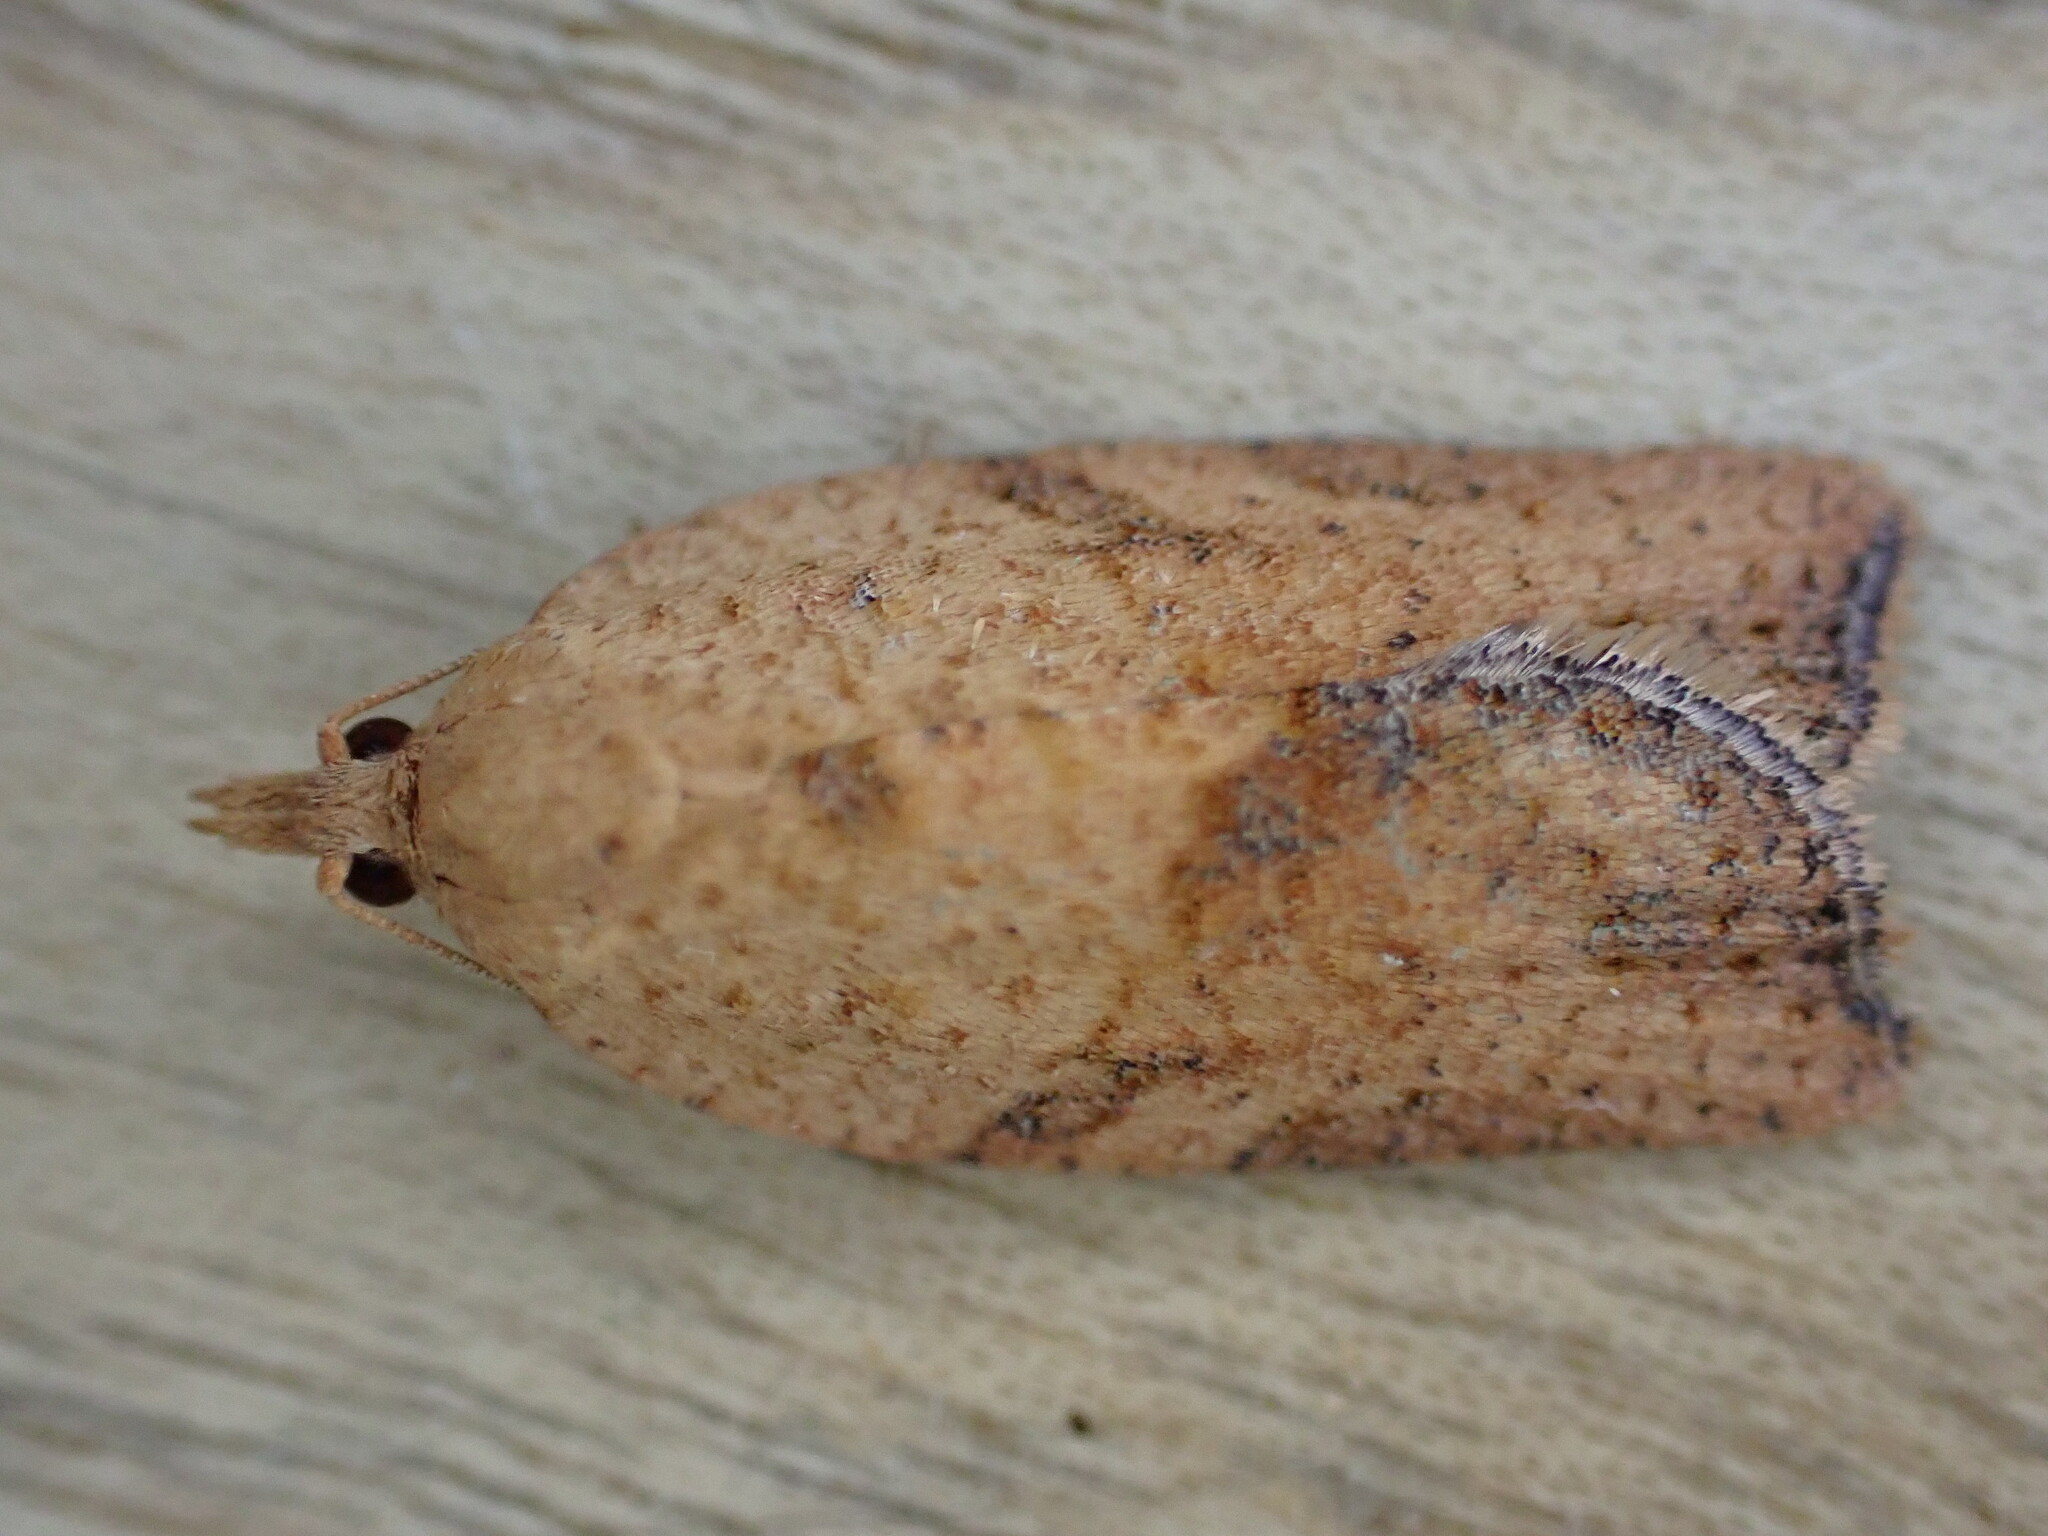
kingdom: Animalia
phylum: Arthropoda
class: Insecta
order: Lepidoptera
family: Tortricidae
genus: Epiphyas
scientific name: Epiphyas postvittana
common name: Light brown apple moth
